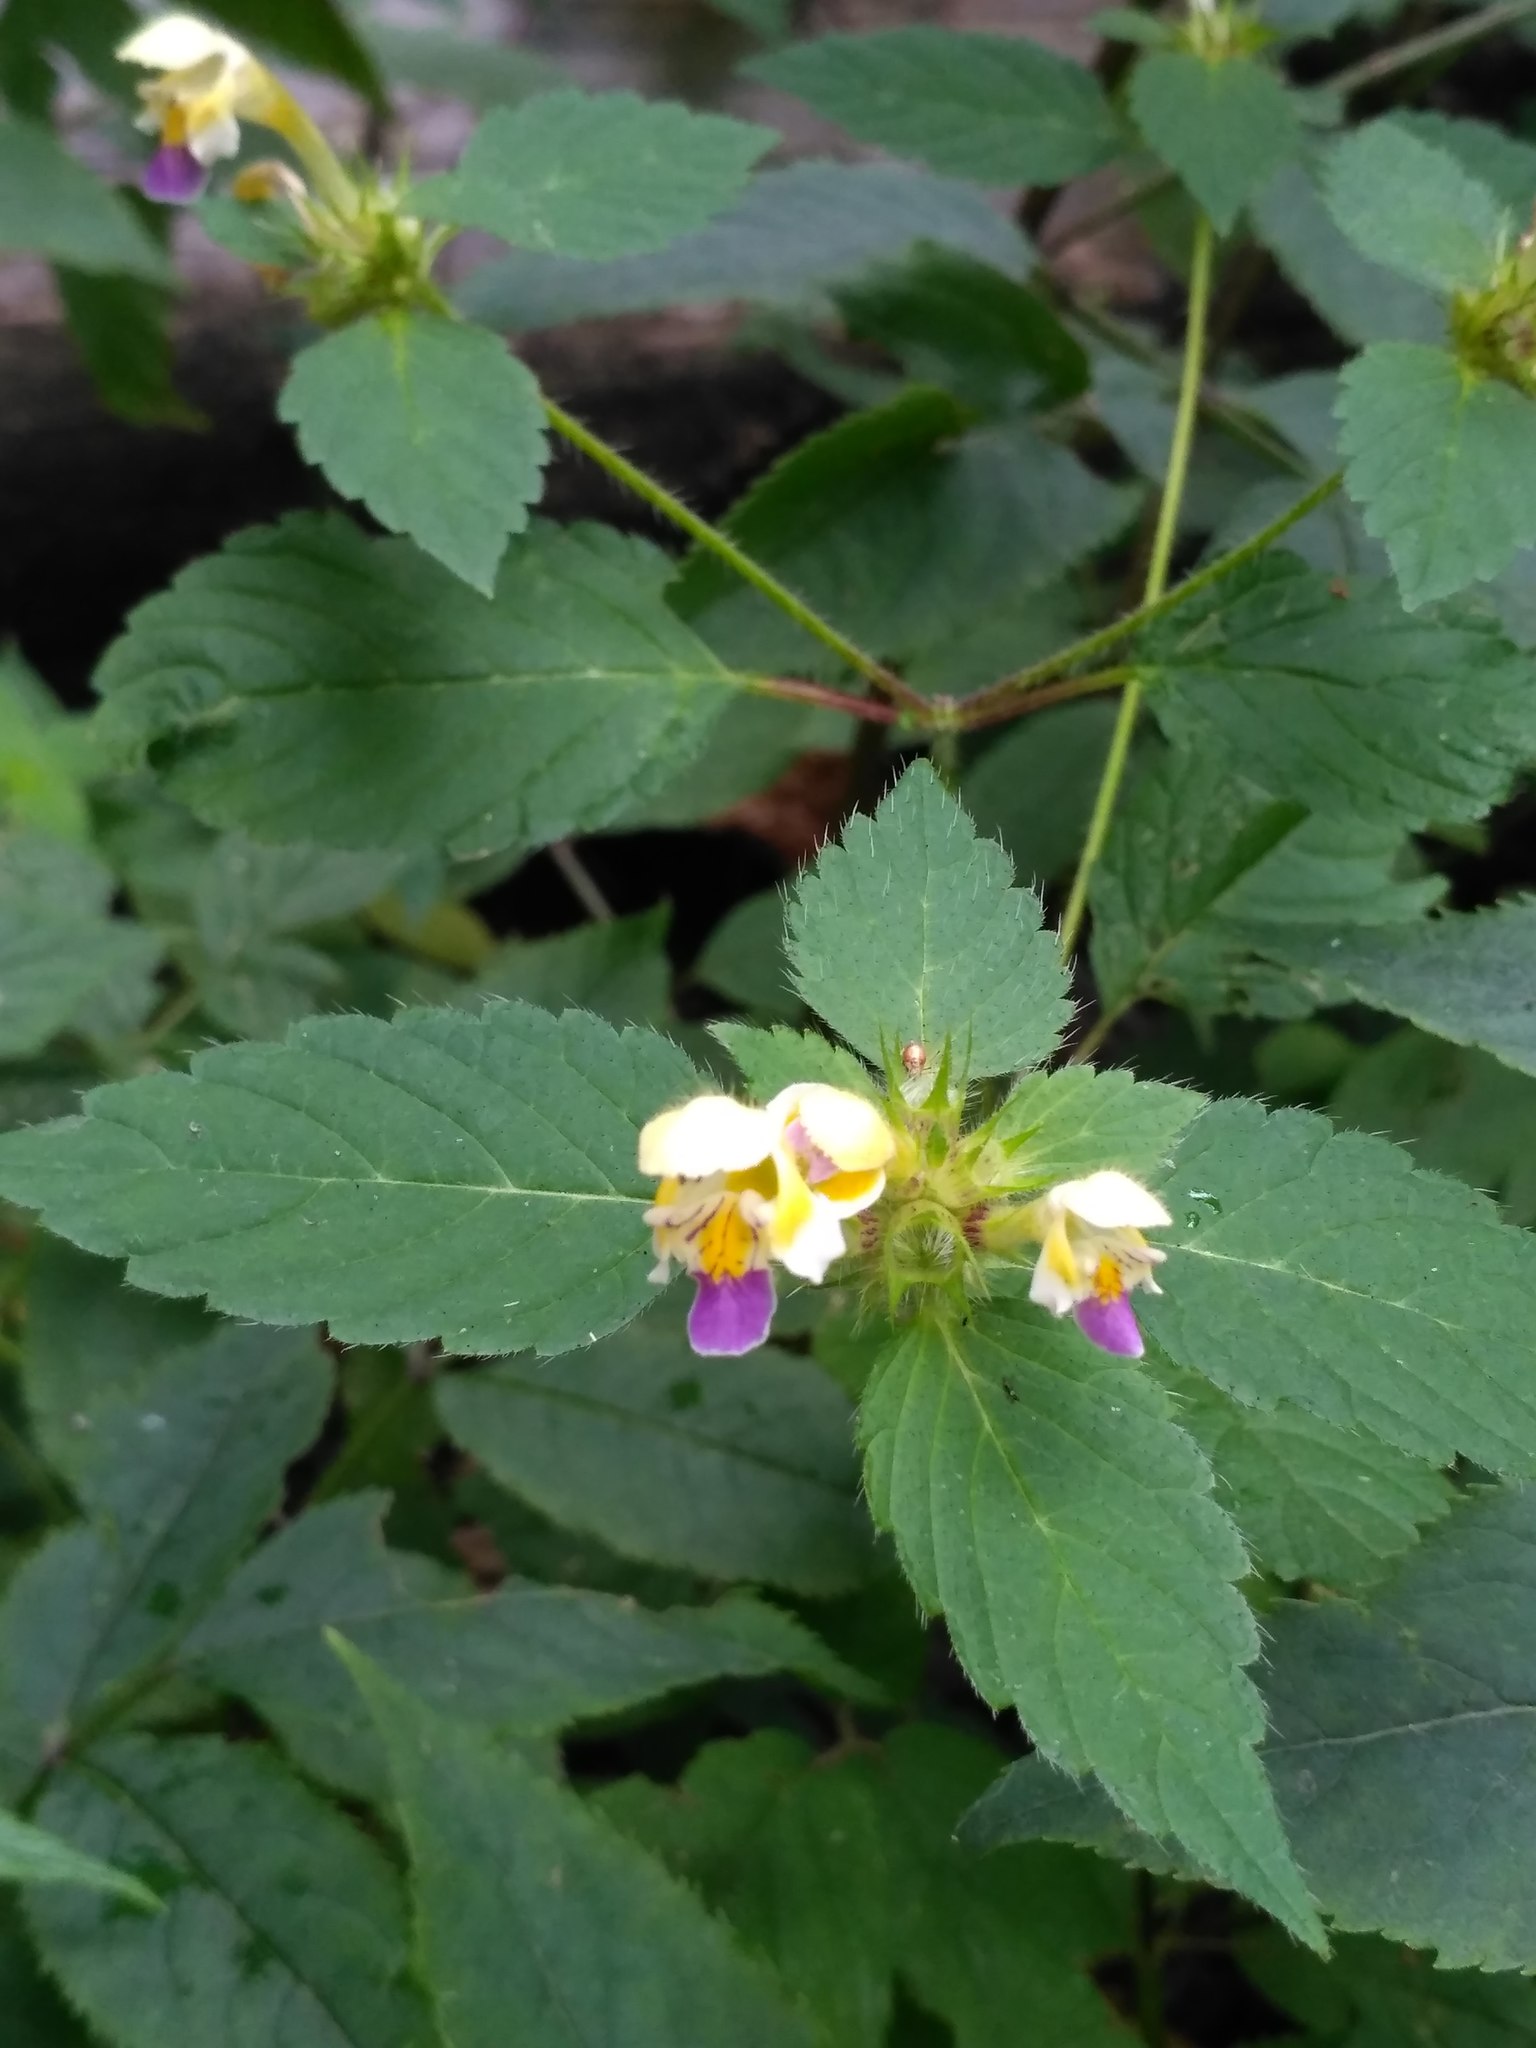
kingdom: Plantae
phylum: Tracheophyta
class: Magnoliopsida
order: Lamiales
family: Lamiaceae
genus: Galeopsis
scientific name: Galeopsis speciosa
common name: Large-flowered hemp-nettle
